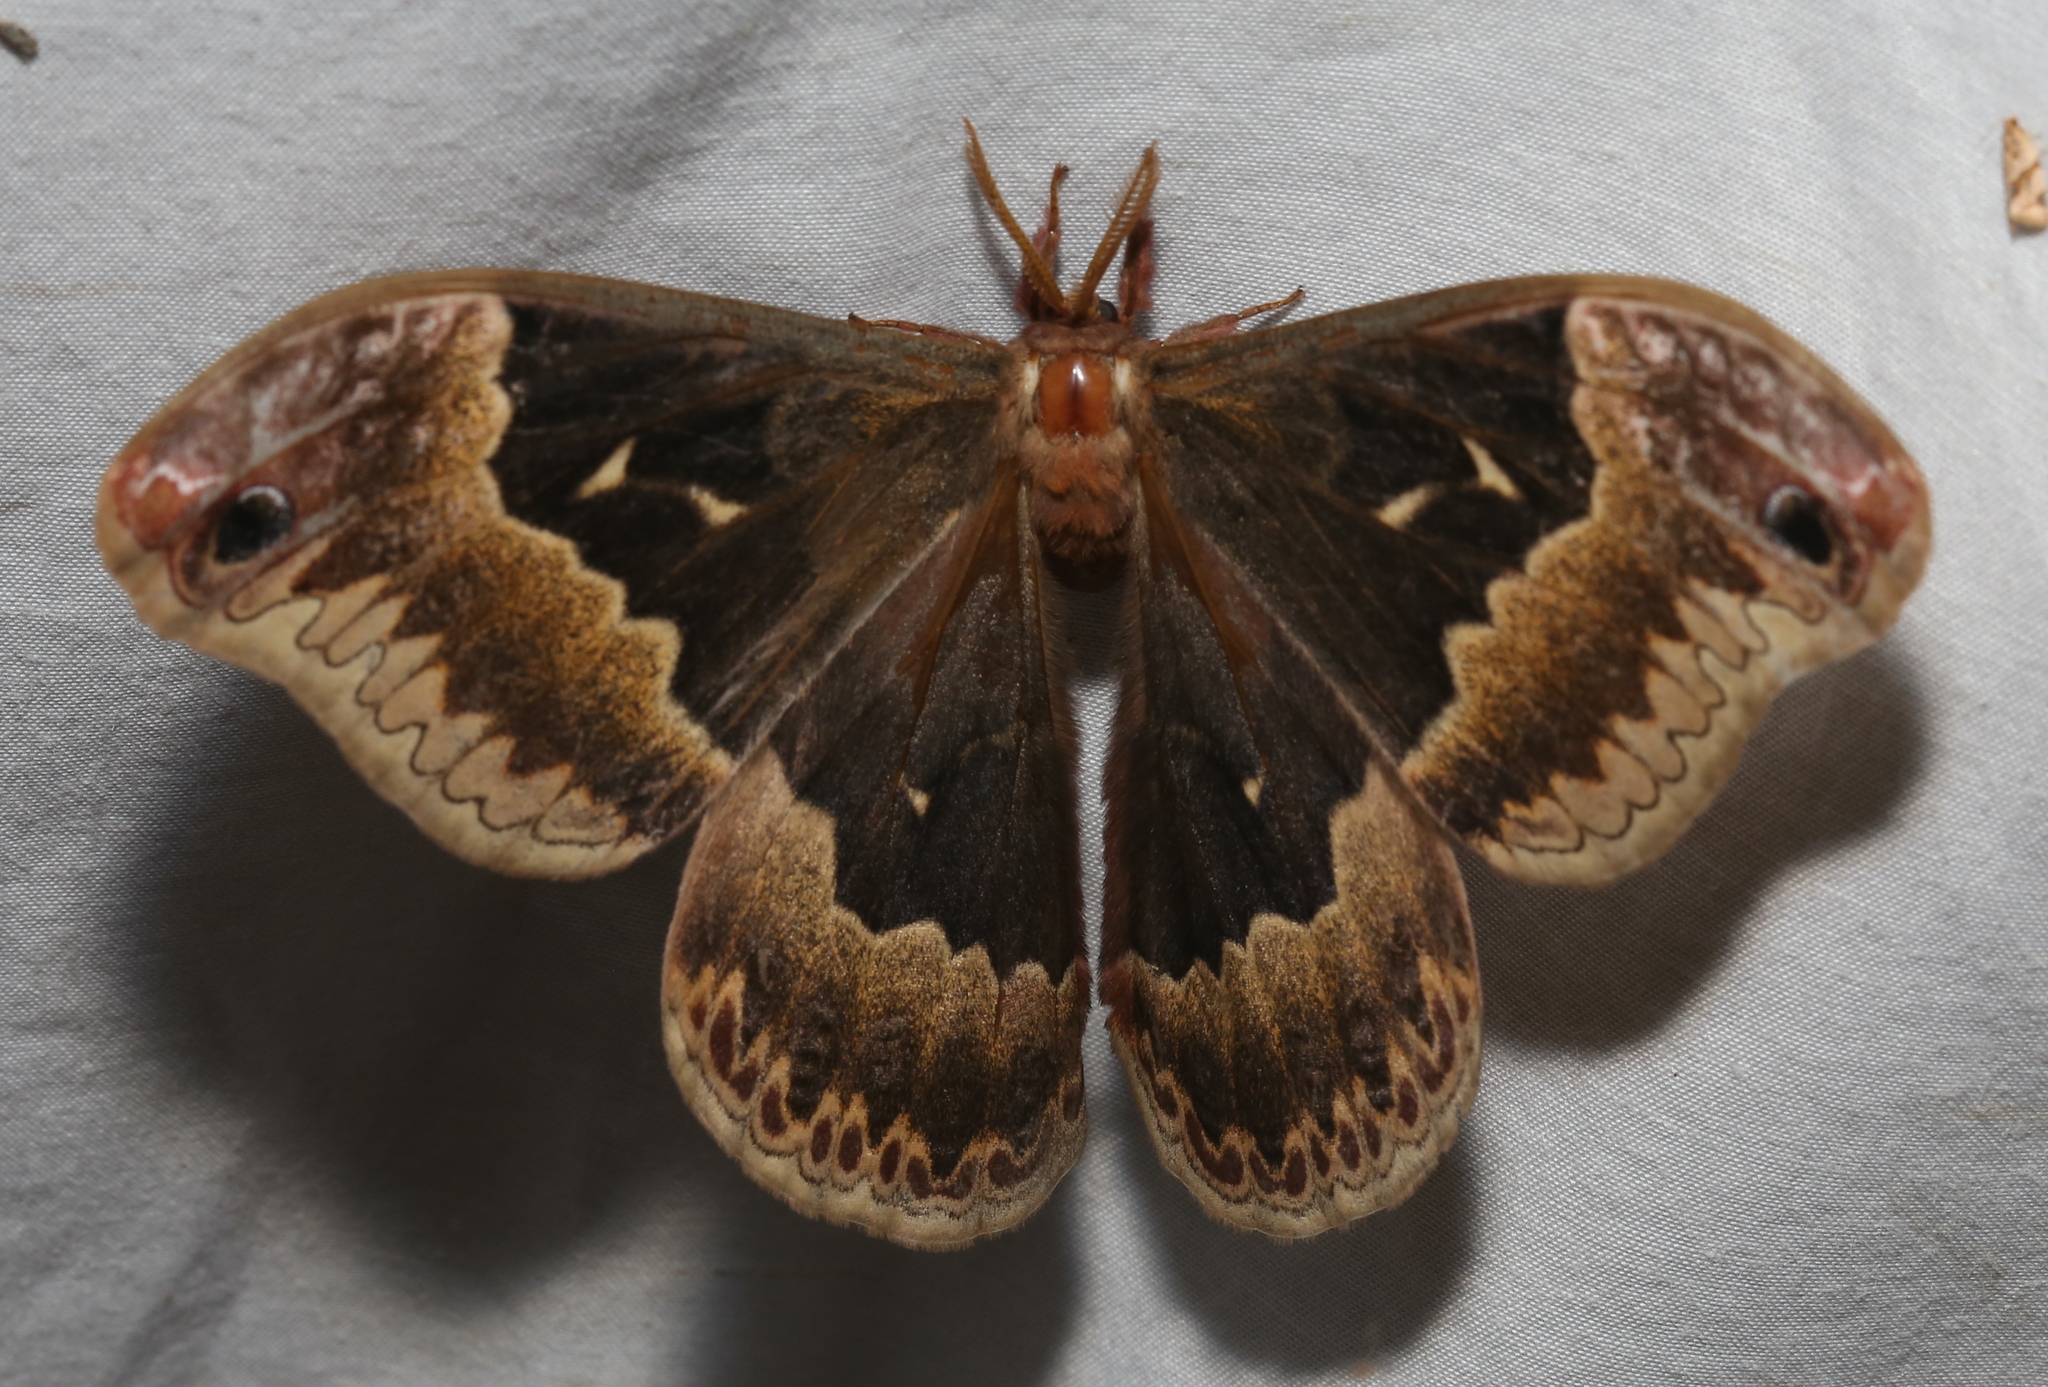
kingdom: Animalia
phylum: Arthropoda
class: Insecta
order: Lepidoptera
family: Saturniidae
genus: Callosamia
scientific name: Callosamia angulifera
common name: Tulip tree silkmoth
